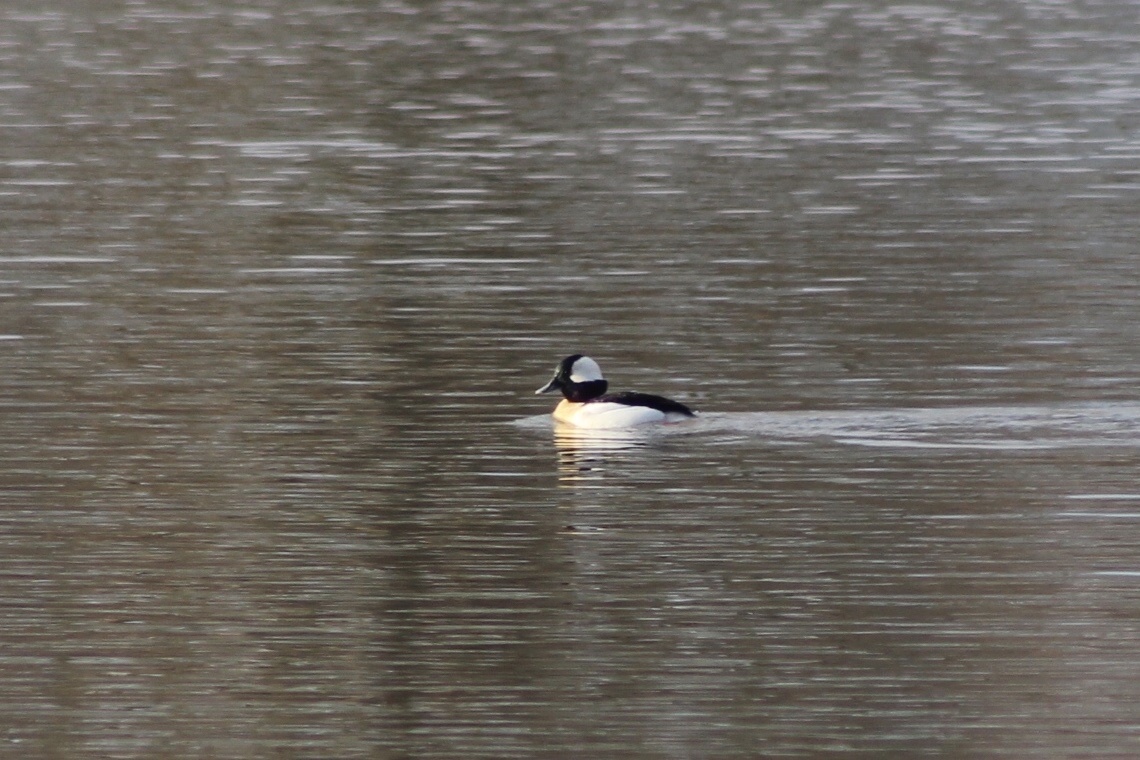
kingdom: Animalia
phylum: Chordata
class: Aves
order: Anseriformes
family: Anatidae
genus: Bucephala
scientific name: Bucephala albeola
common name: Bufflehead
